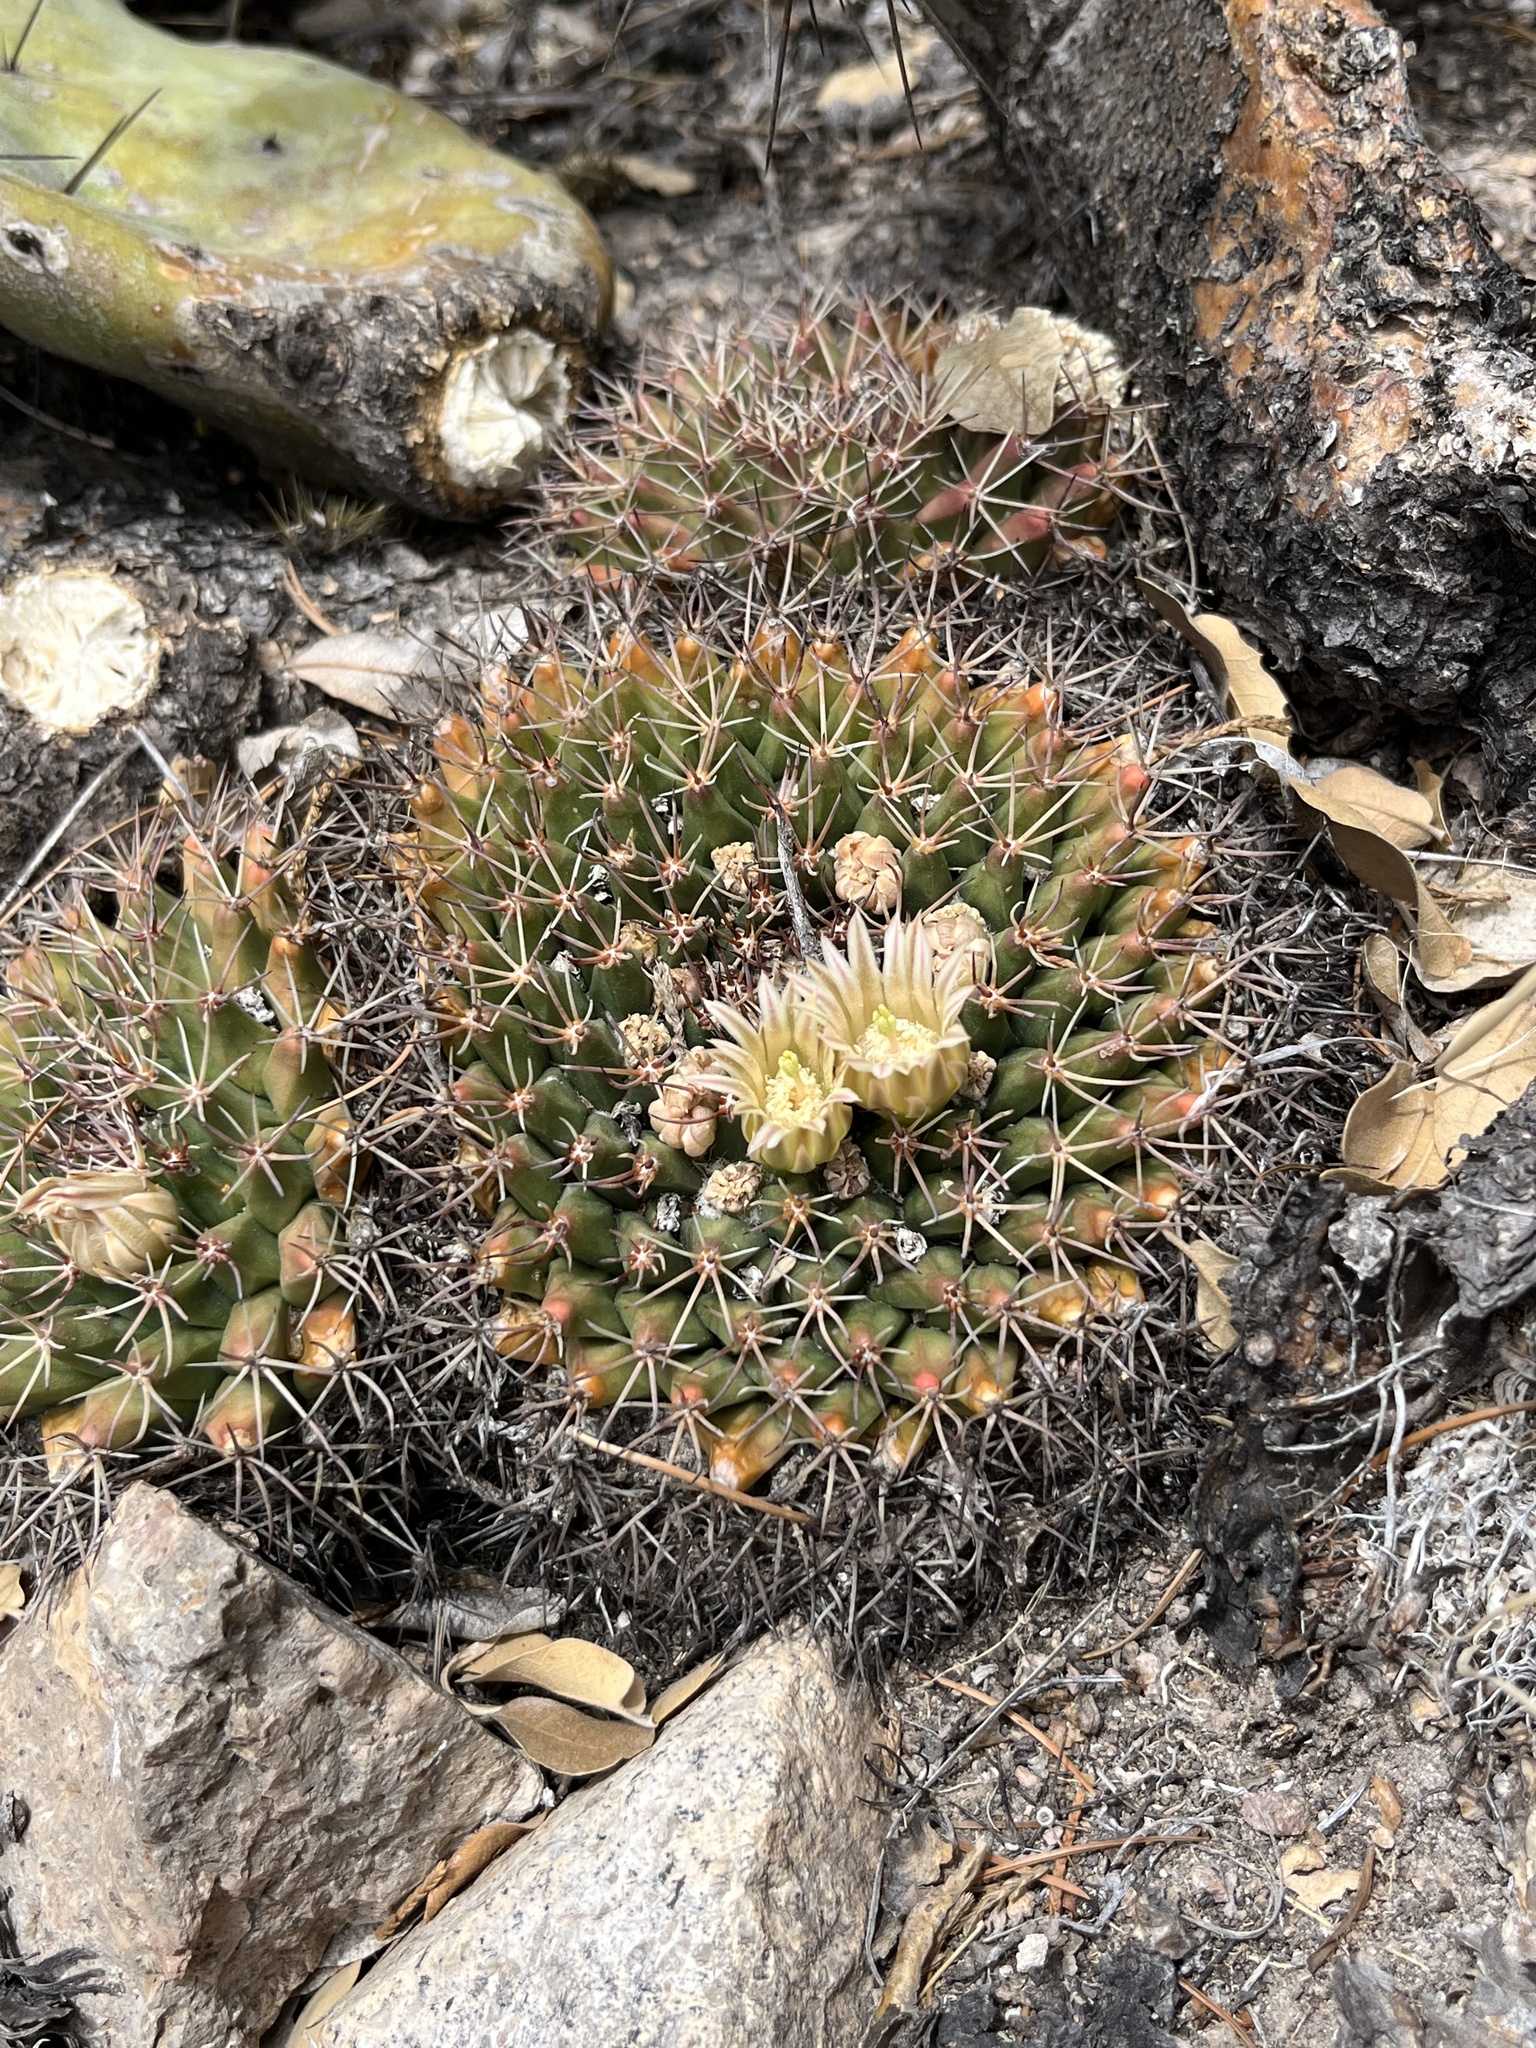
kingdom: Plantae
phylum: Tracheophyta
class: Magnoliopsida
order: Caryophyllales
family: Cactaceae
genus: Mammillaria
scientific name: Mammillaria heyderi
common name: Little nipple cactus
